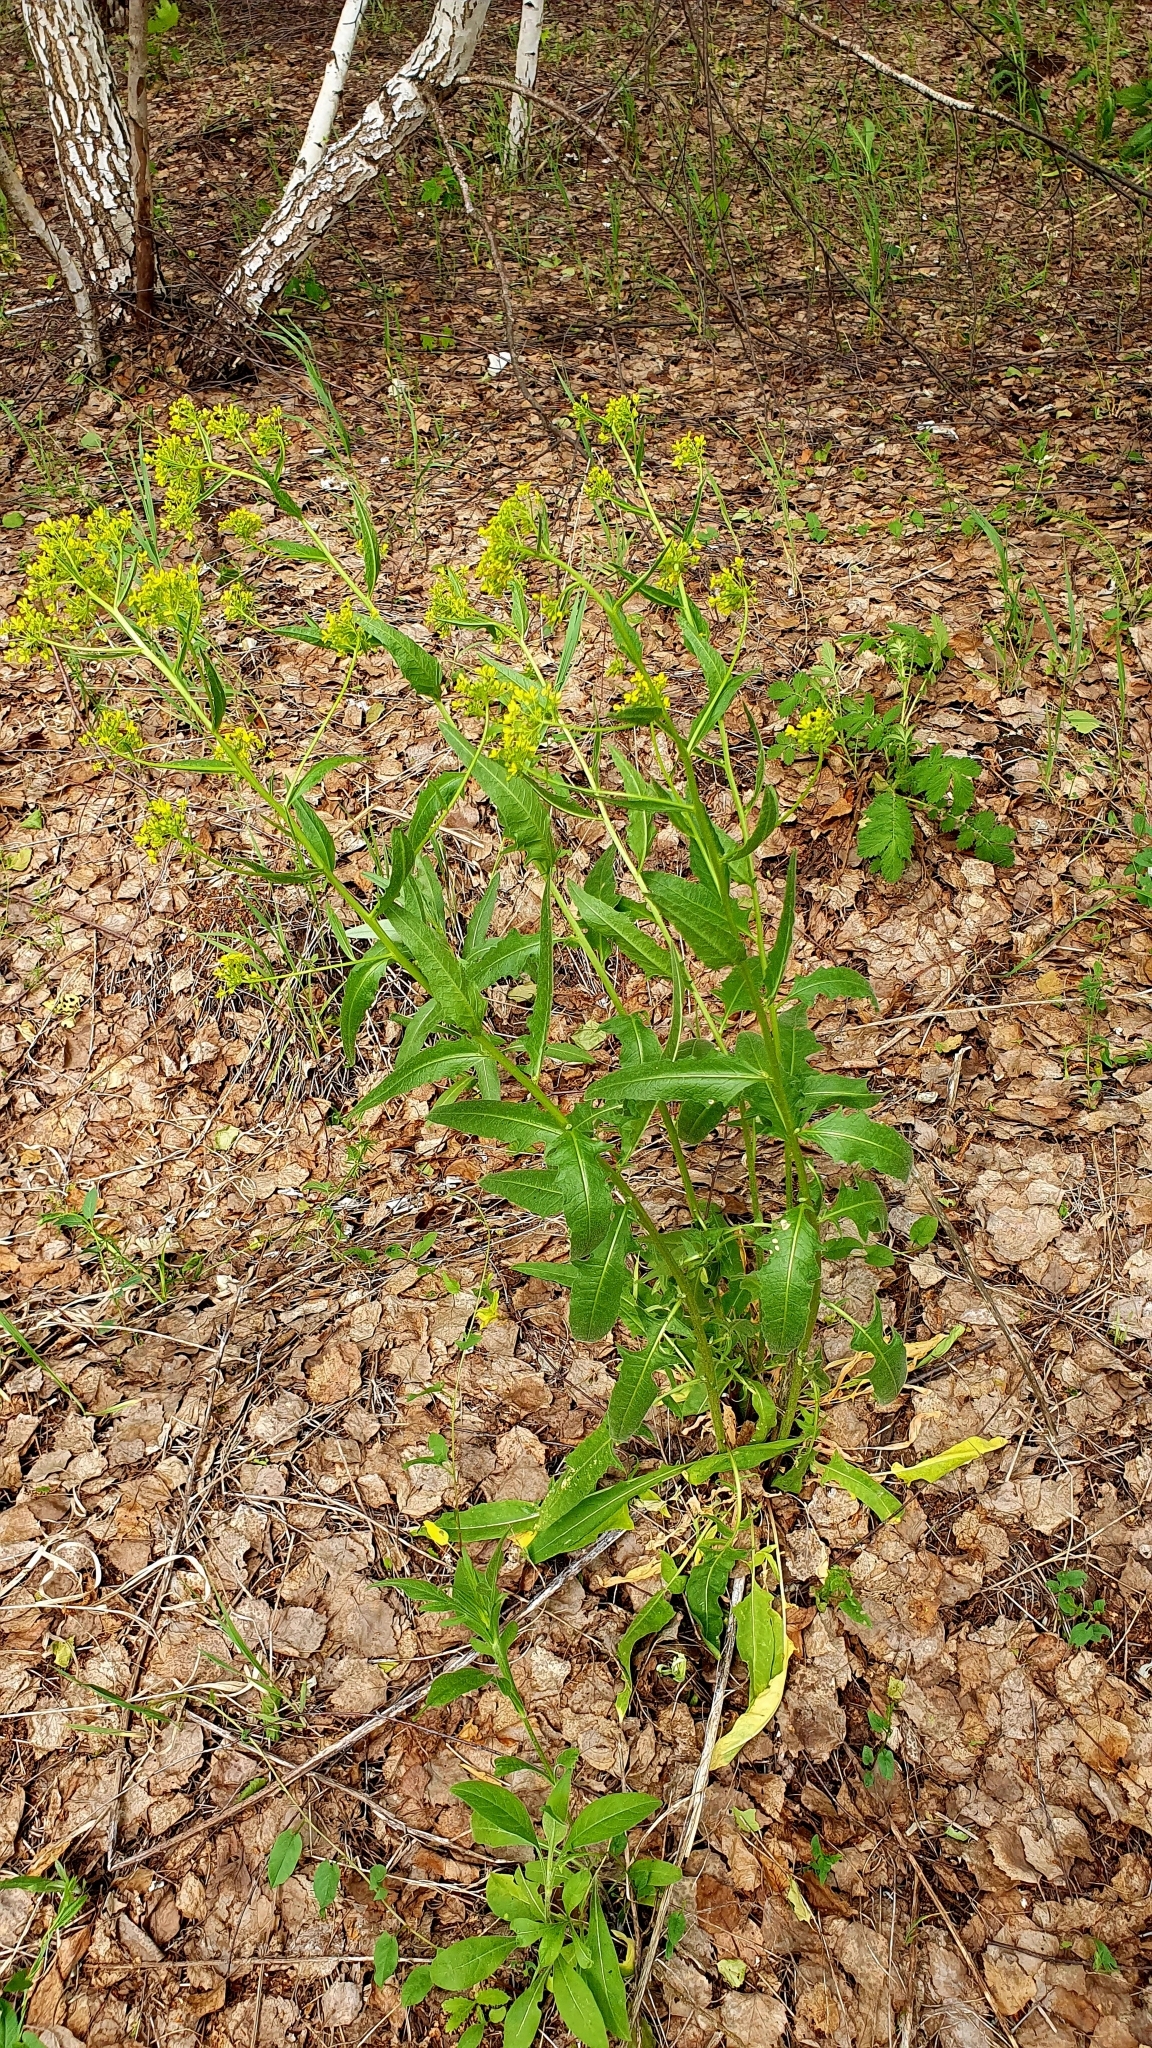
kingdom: Plantae
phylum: Tracheophyta
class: Magnoliopsida
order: Brassicales
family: Brassicaceae
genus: Bunias
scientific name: Bunias orientalis
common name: Warty-cabbage
